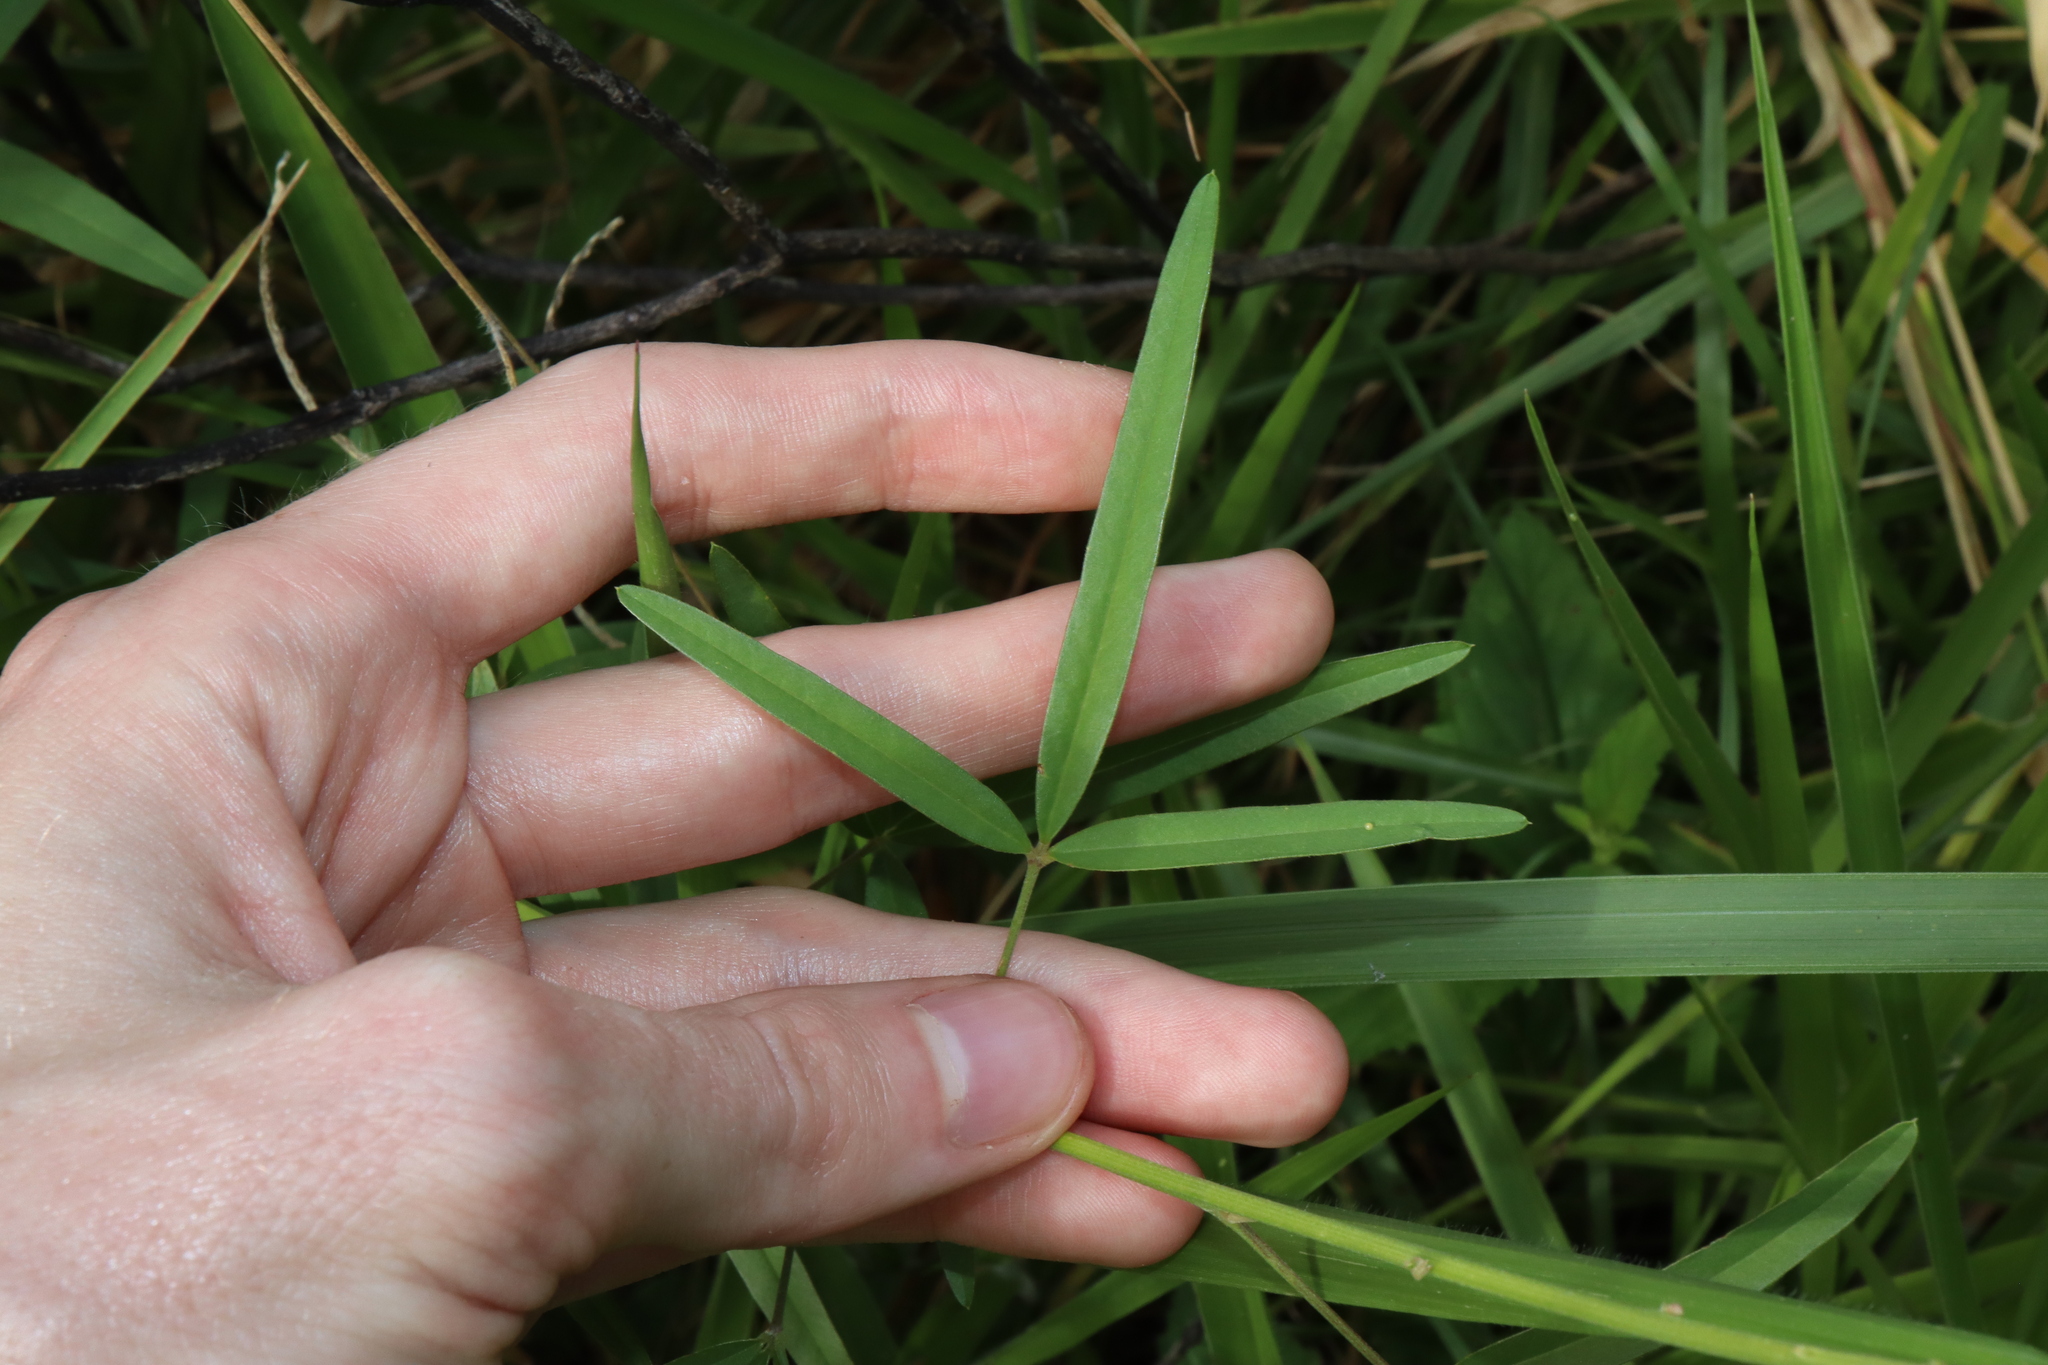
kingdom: Plantae
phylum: Tracheophyta
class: Magnoliopsida
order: Fabales
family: Fabaceae
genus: Crotalaria
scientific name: Crotalaria lanceolata
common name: Lanceleaf rattlebox
